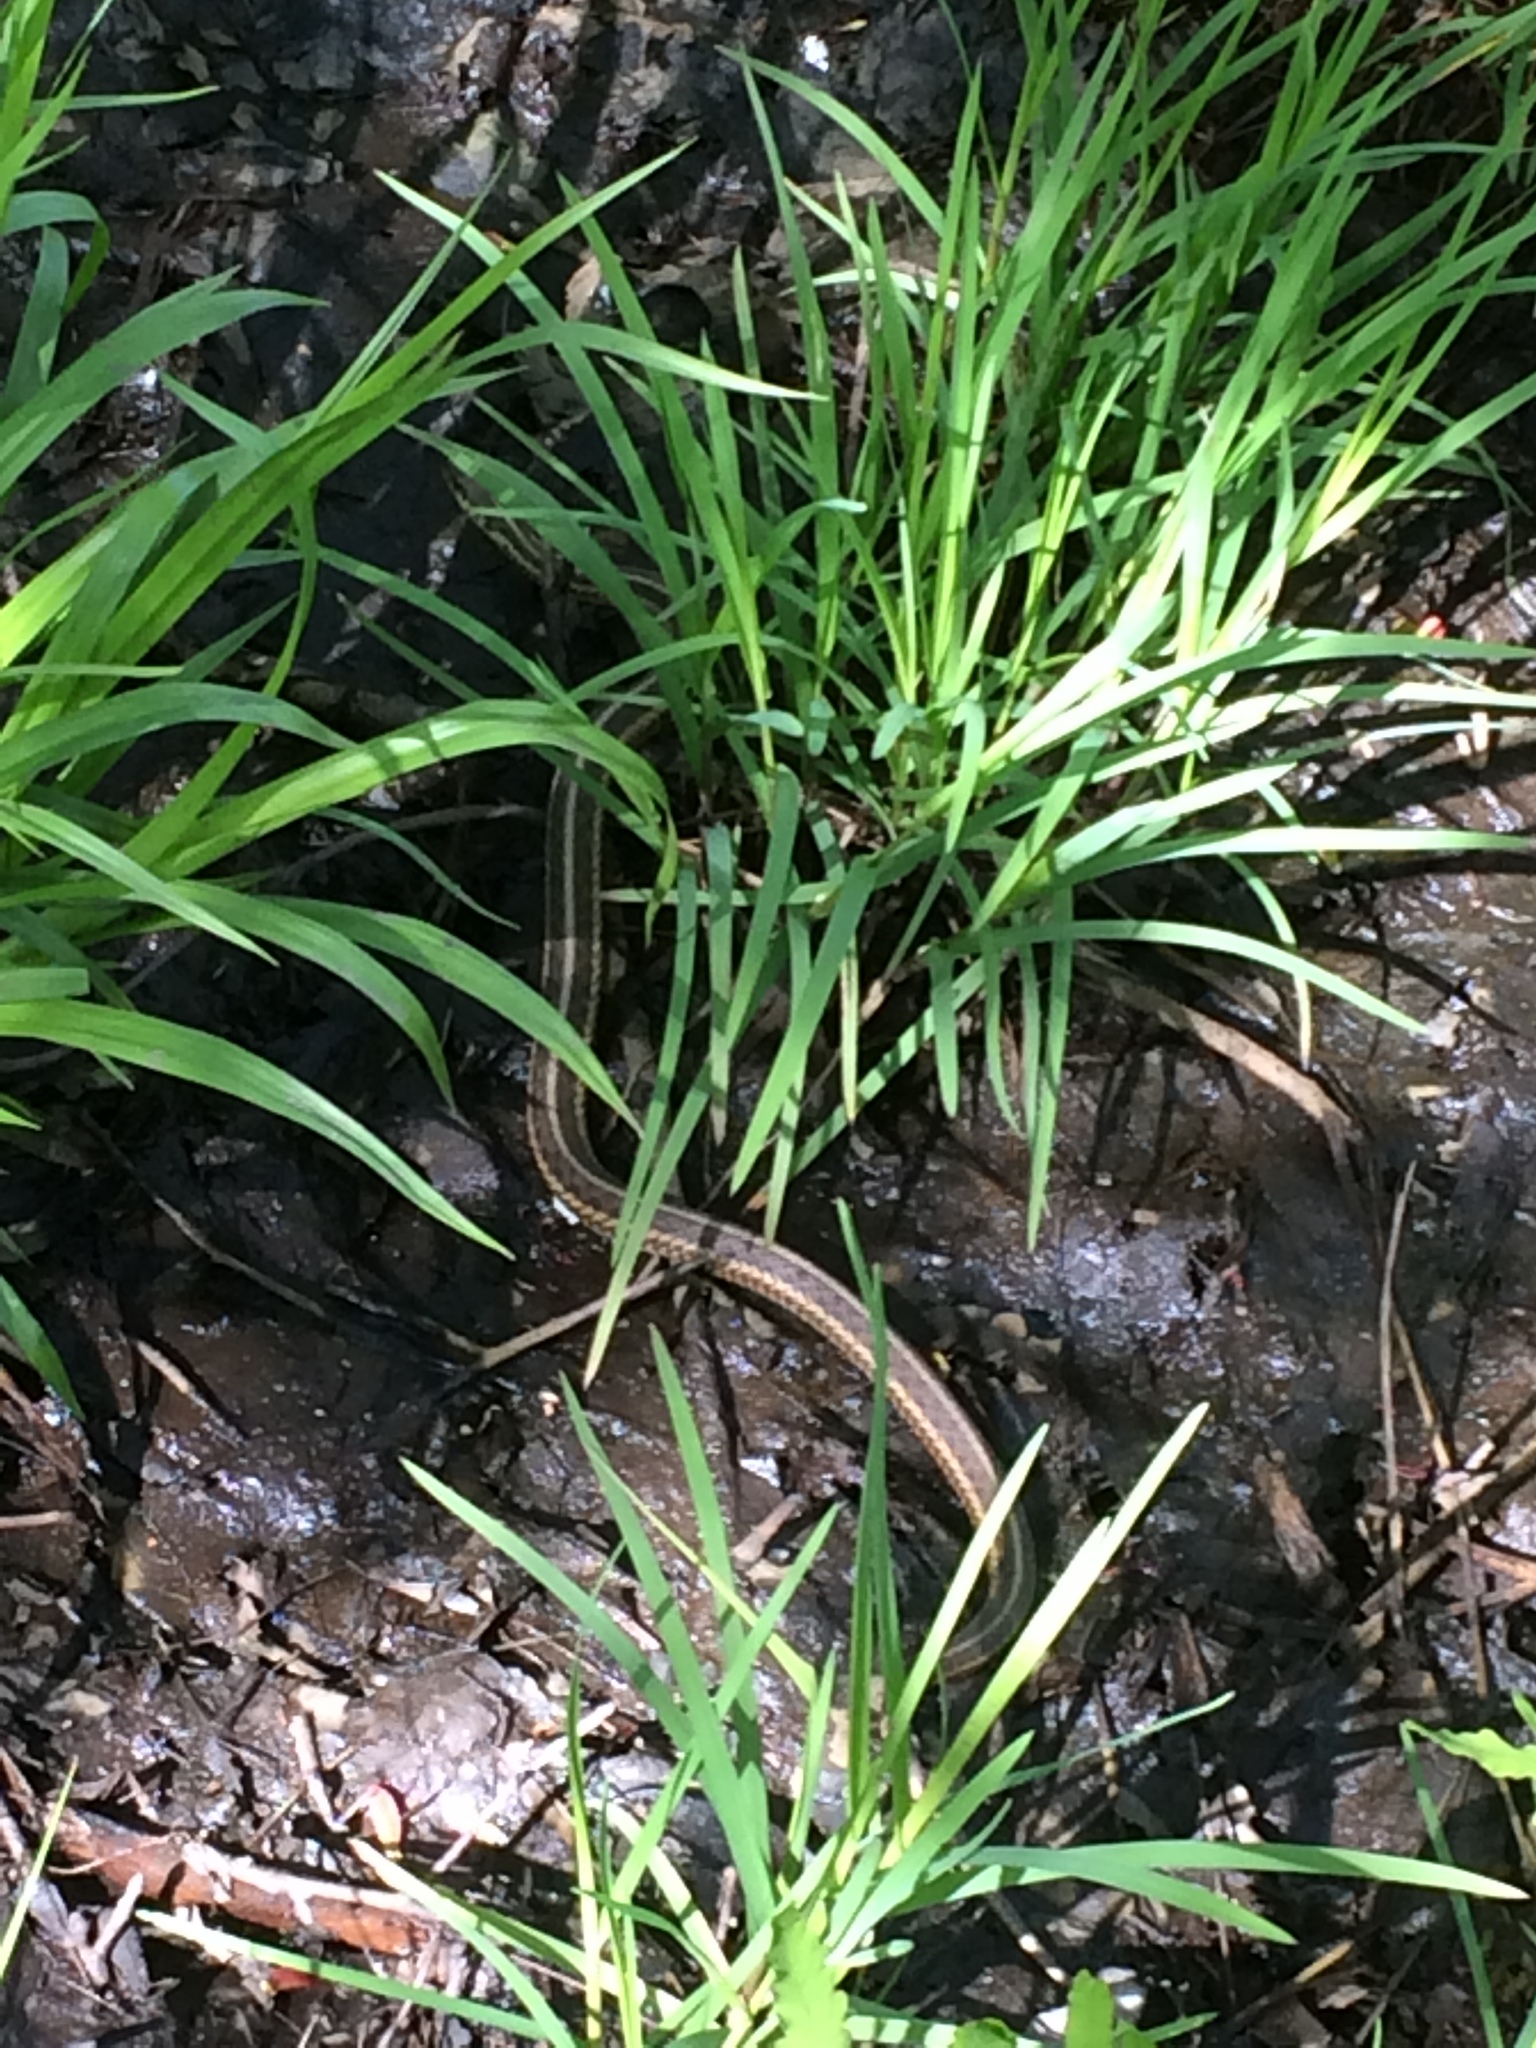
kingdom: Animalia
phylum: Chordata
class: Squamata
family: Colubridae
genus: Thamnophis
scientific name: Thamnophis sirtalis
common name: Common garter snake
